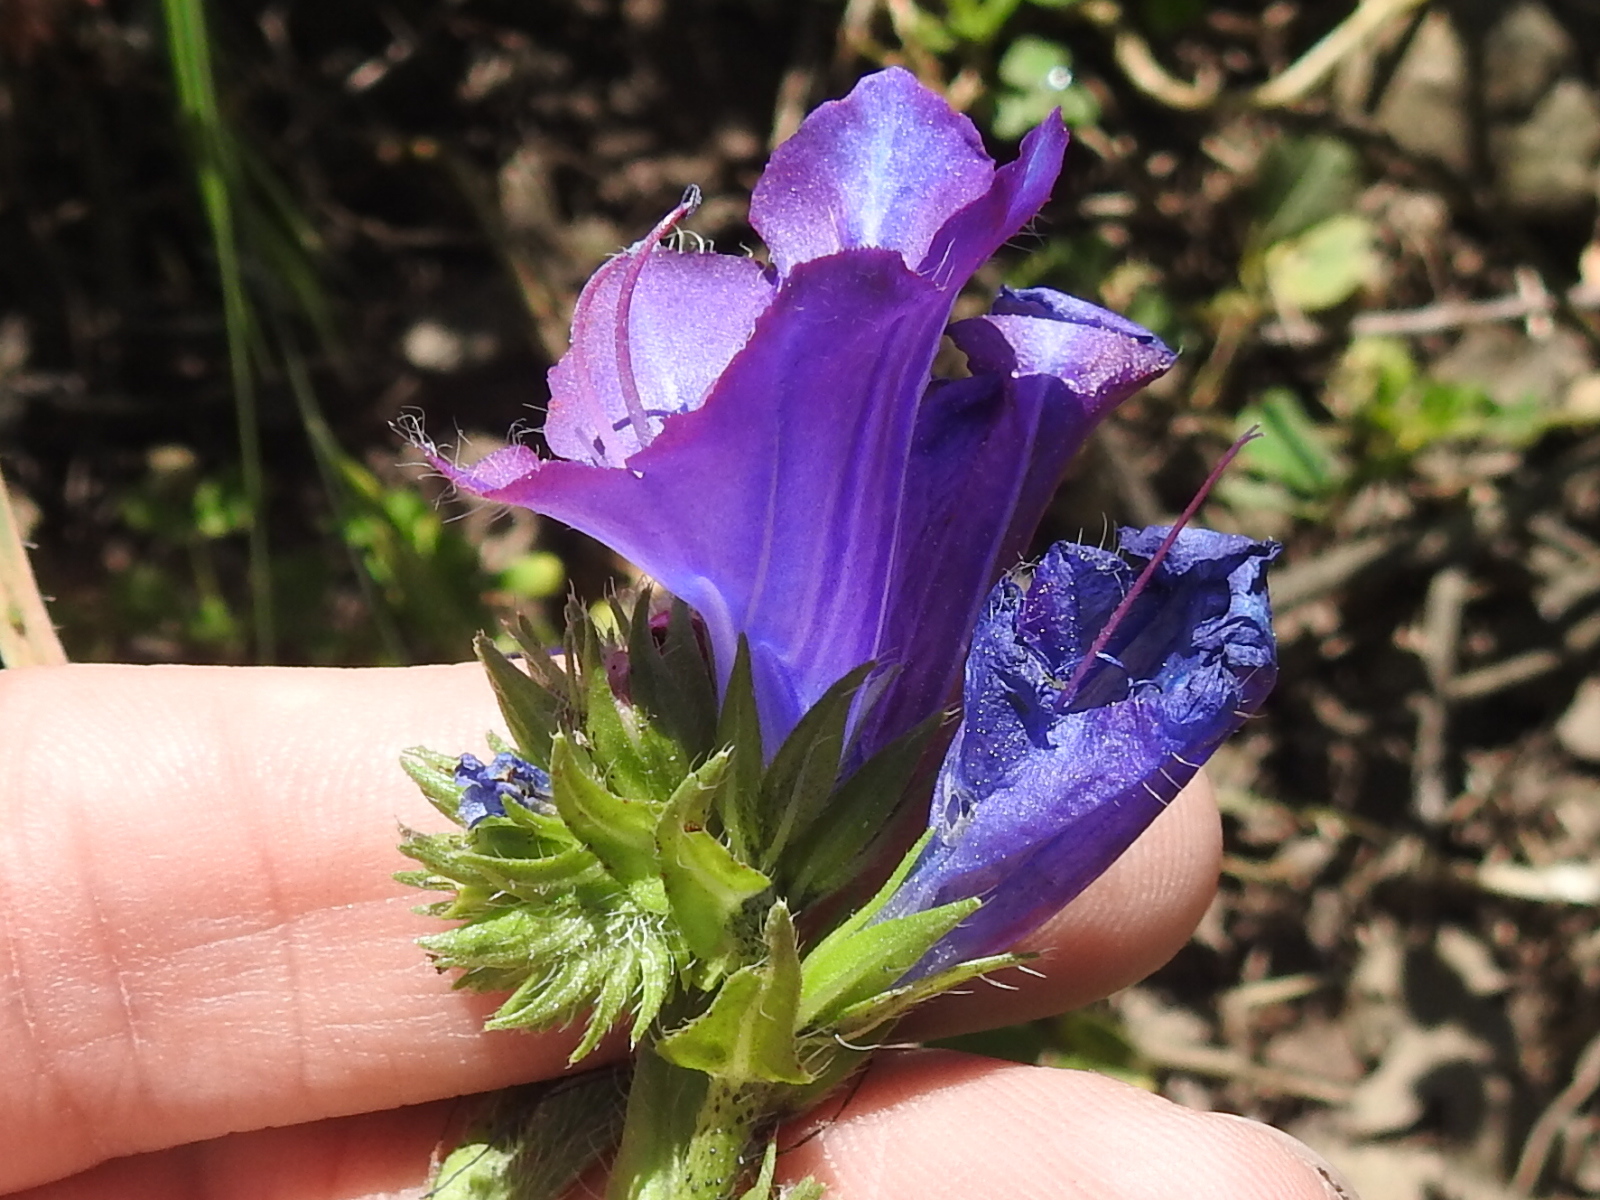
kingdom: Plantae
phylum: Tracheophyta
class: Magnoliopsida
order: Boraginales
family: Boraginaceae
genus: Echium
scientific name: Echium plantagineum
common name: Purple viper's-bugloss
